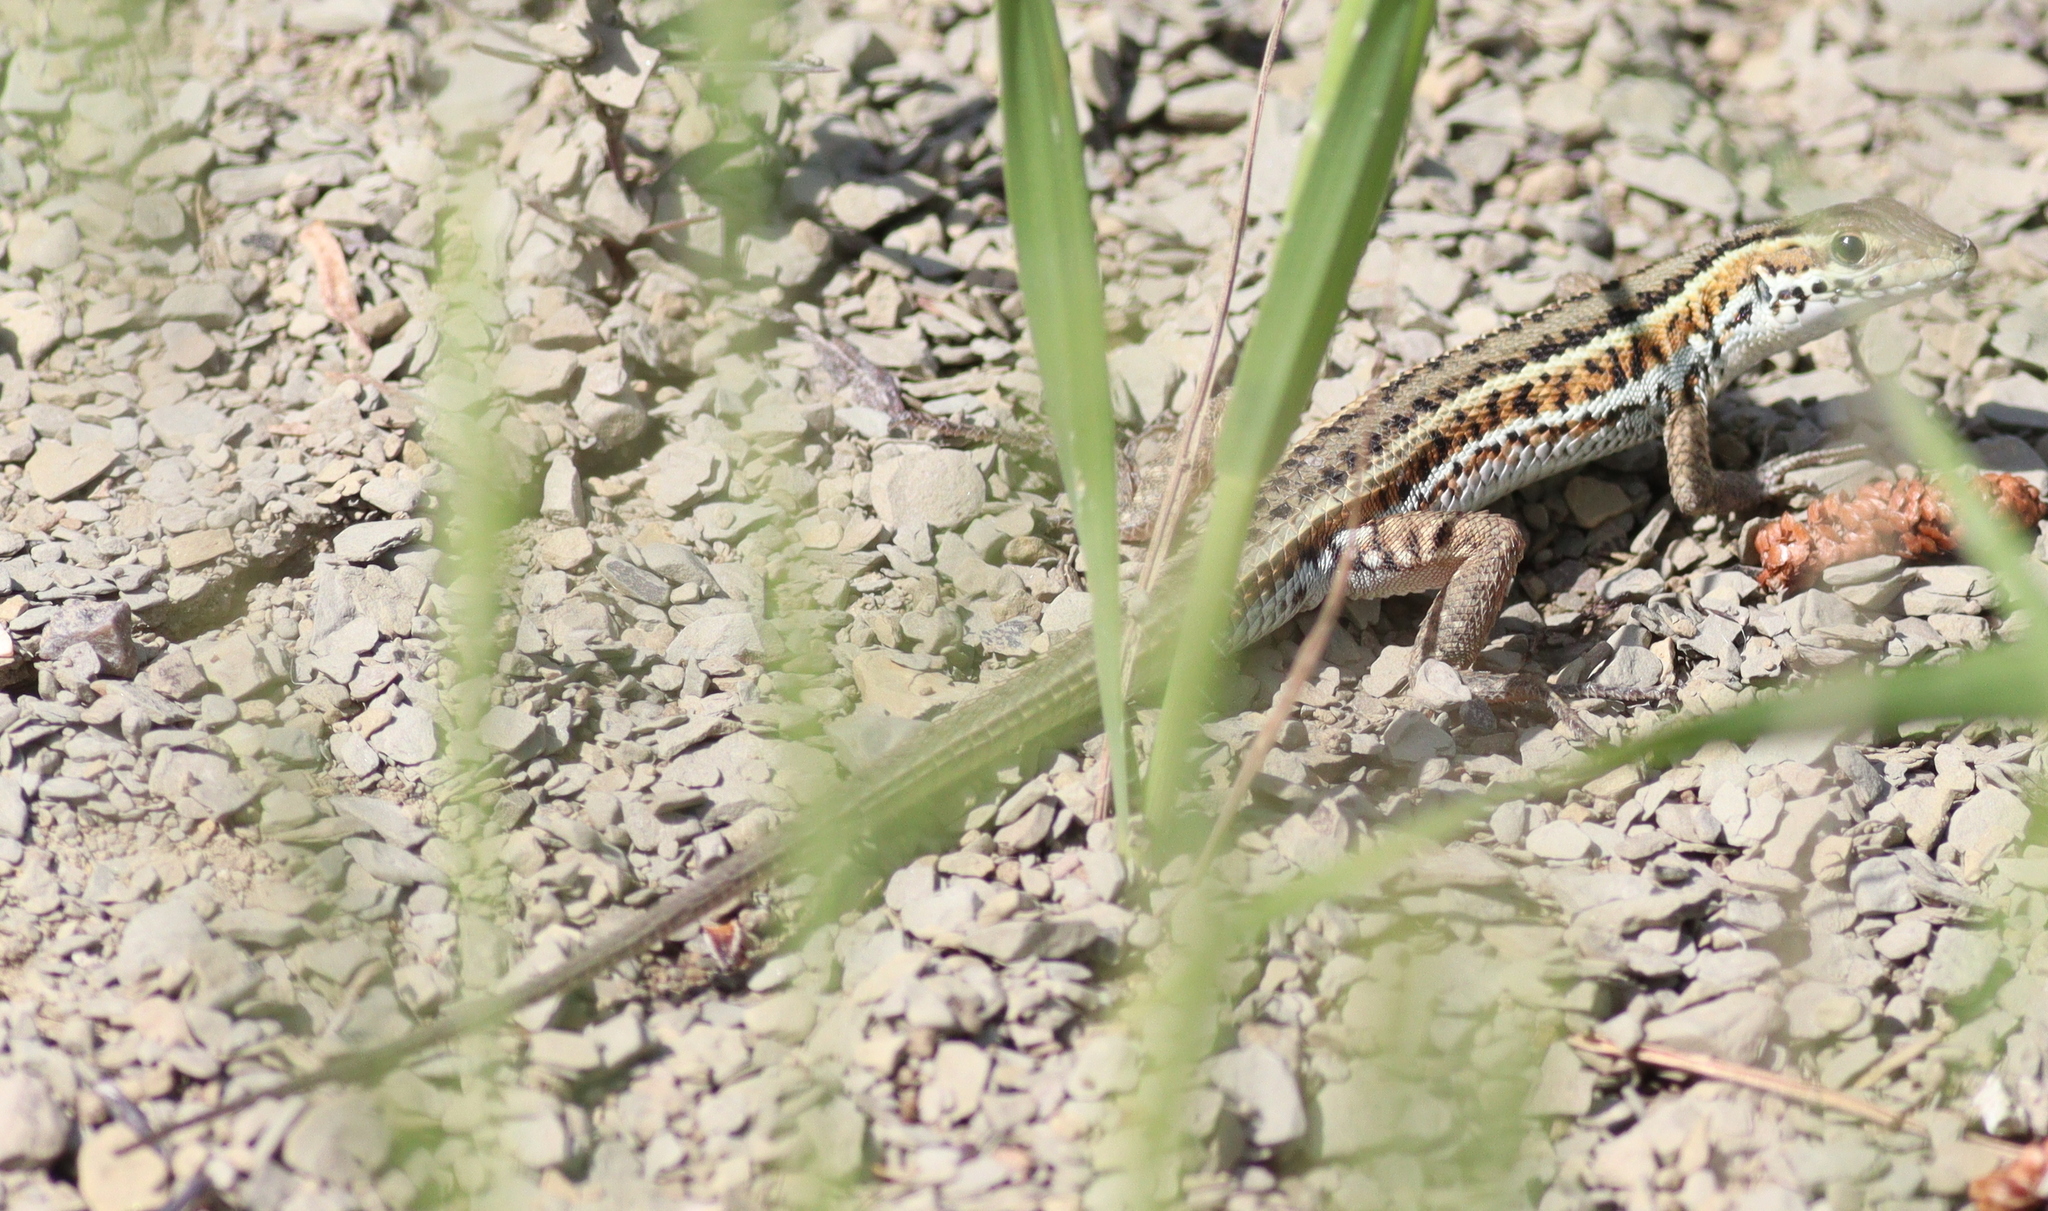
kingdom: Animalia
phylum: Chordata
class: Squamata
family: Lacertidae
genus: Ophisops
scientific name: Ophisops elegans
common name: Snake-eyed lizard
